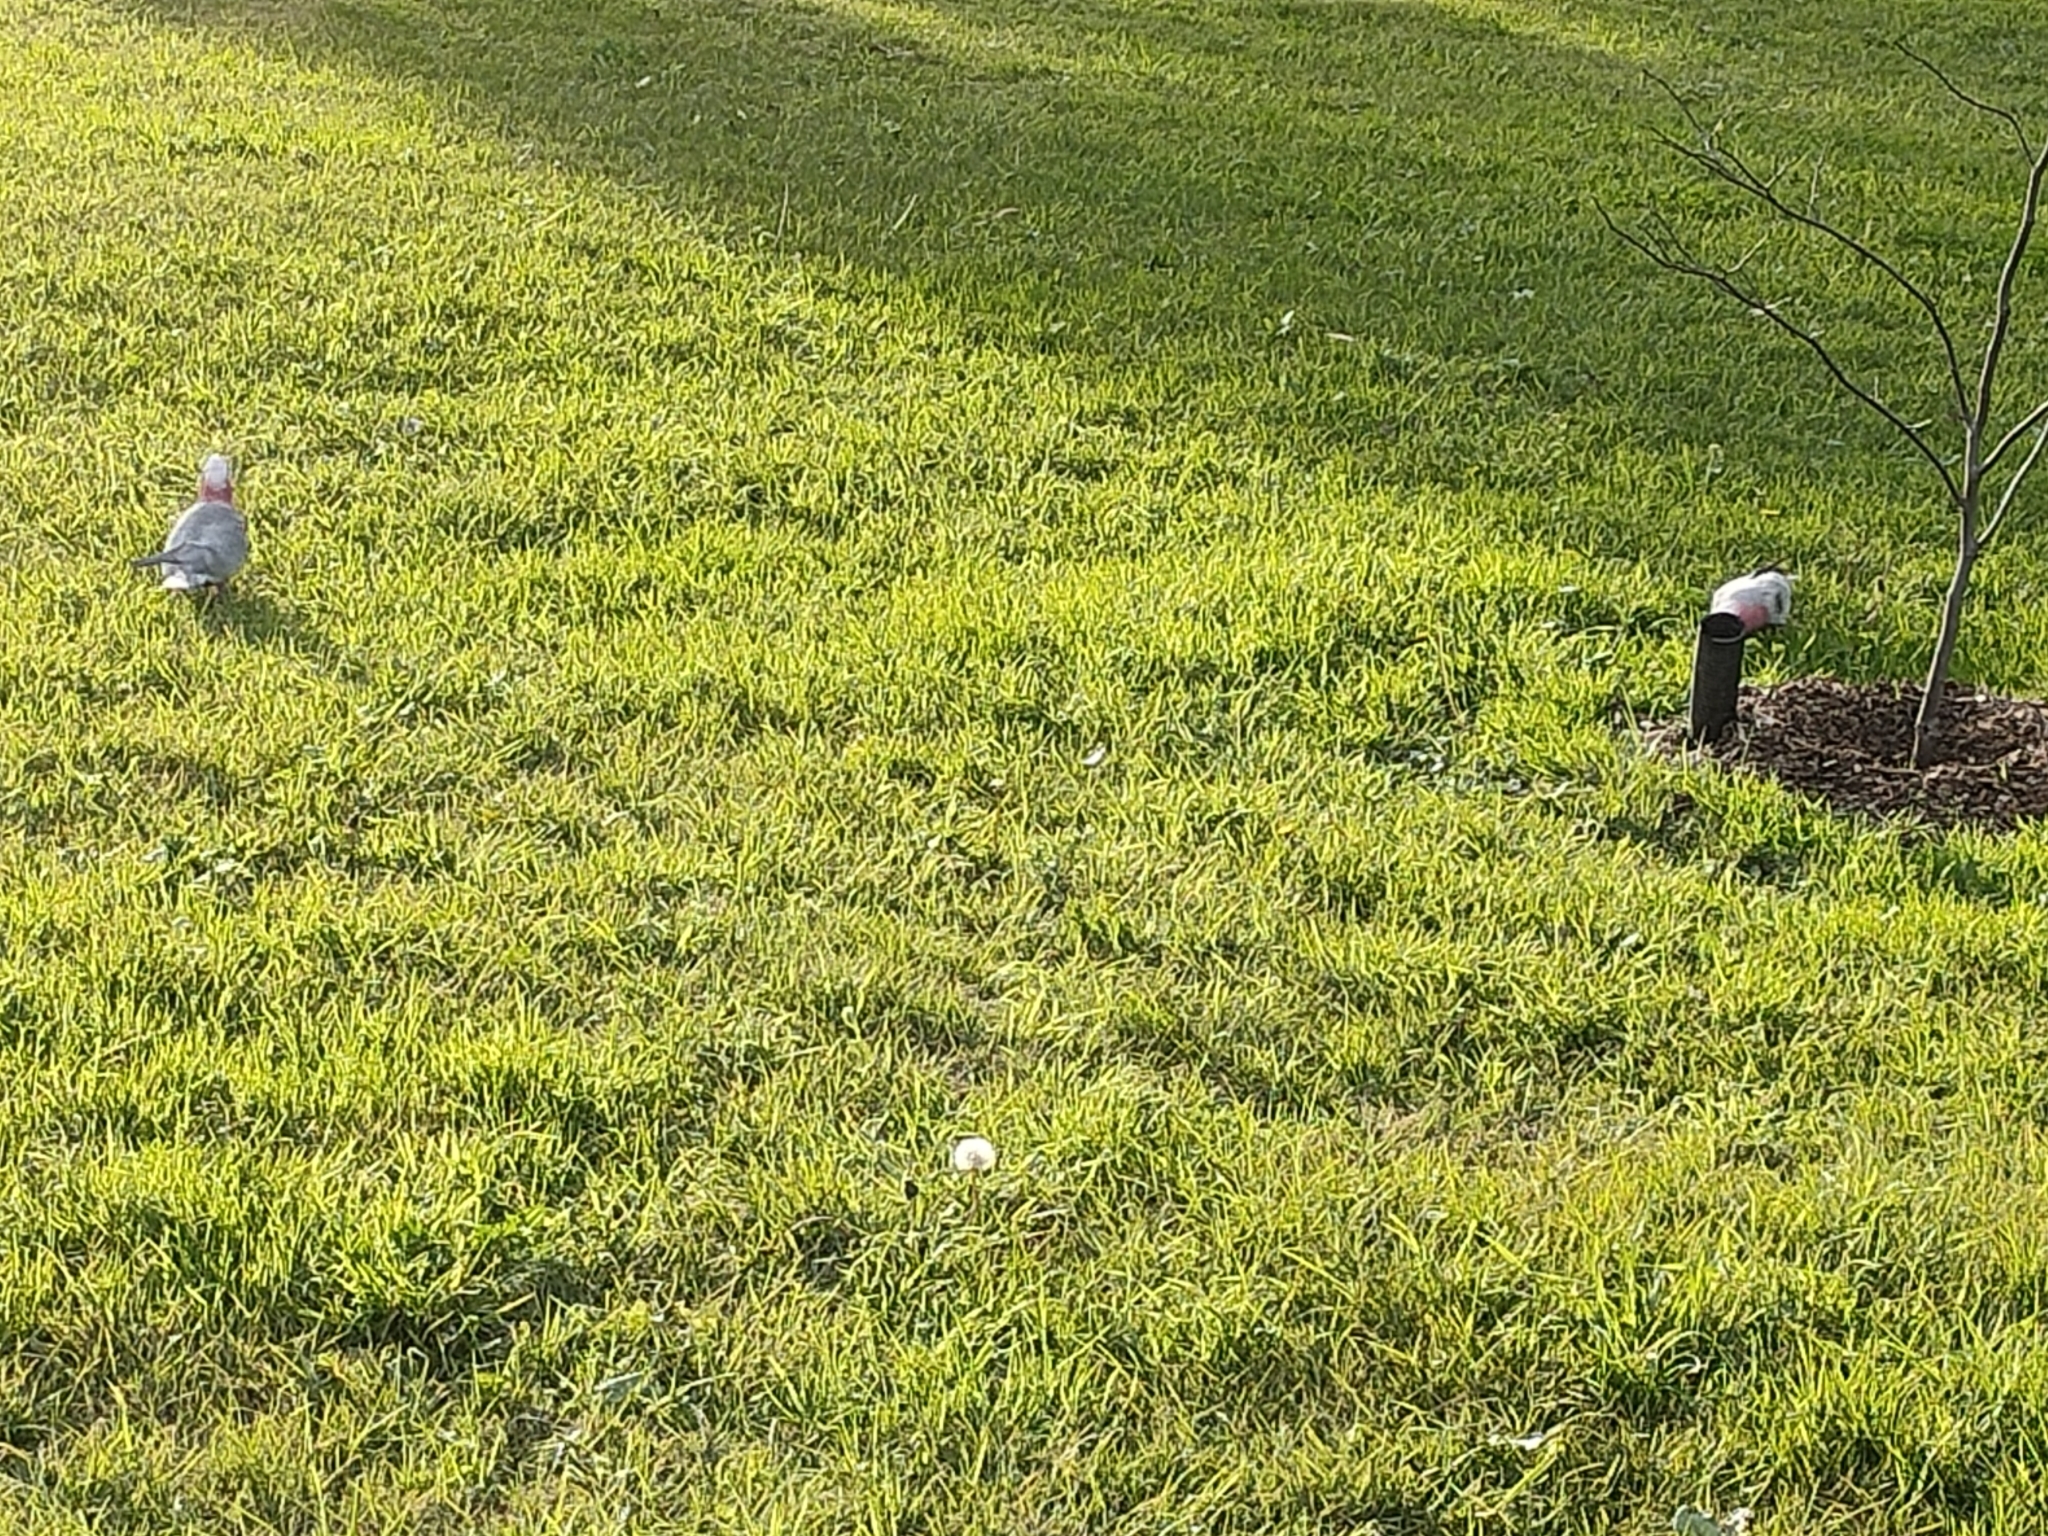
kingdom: Animalia
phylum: Chordata
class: Aves
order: Psittaciformes
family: Psittacidae
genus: Eolophus
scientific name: Eolophus roseicapilla
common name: Galah
